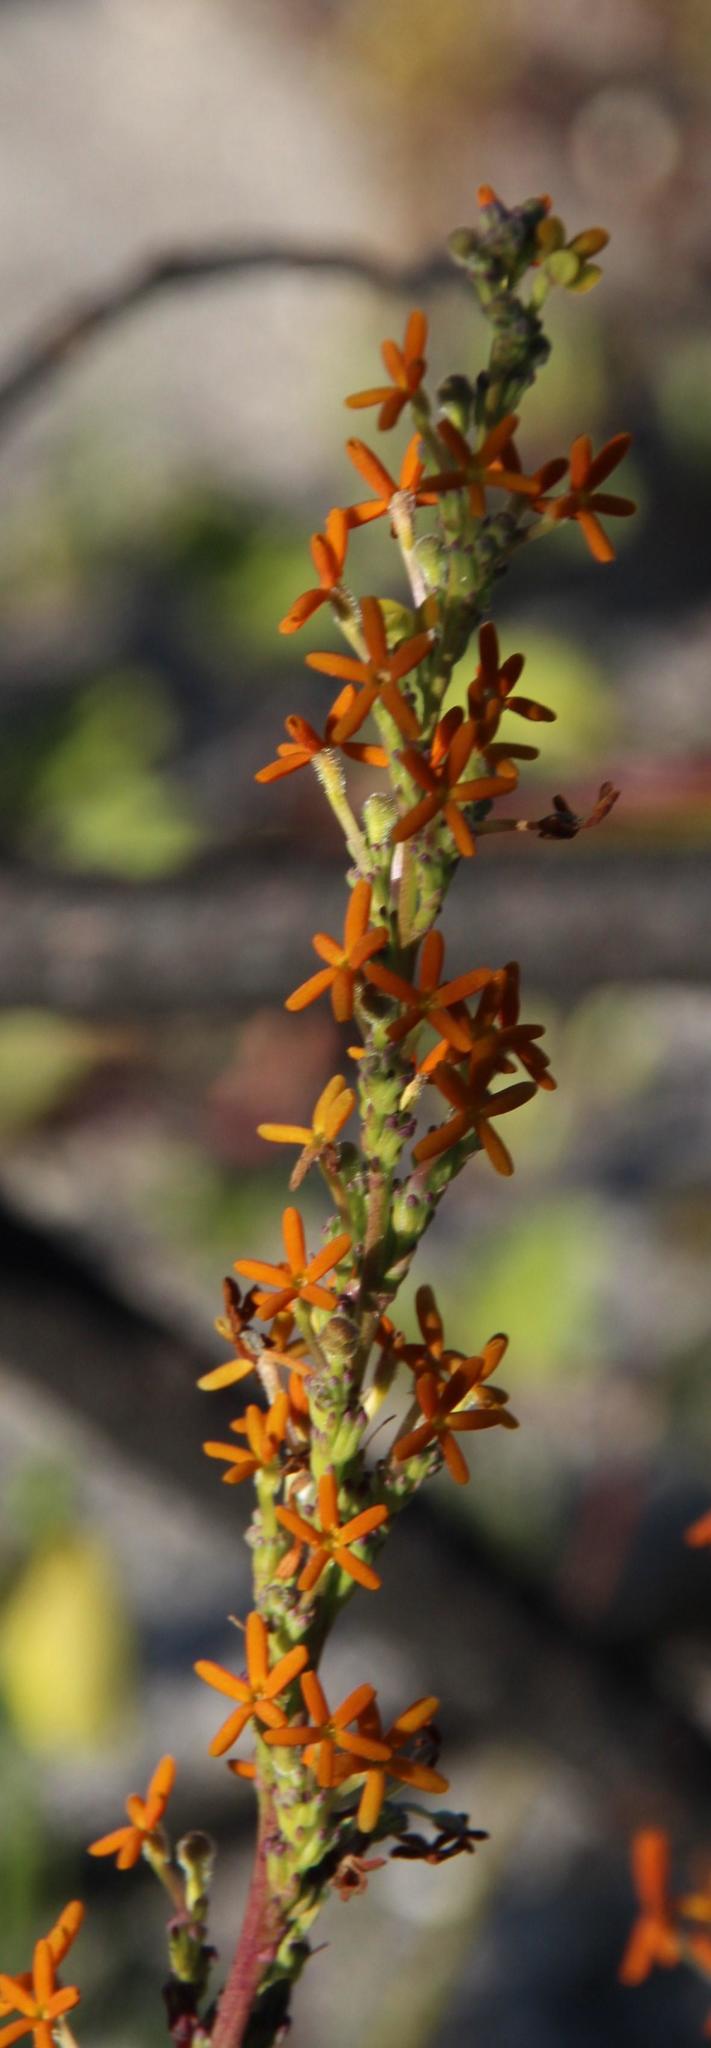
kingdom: Plantae
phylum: Tracheophyta
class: Magnoliopsida
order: Lamiales
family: Scrophulariaceae
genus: Manulea
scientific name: Manulea rubra
